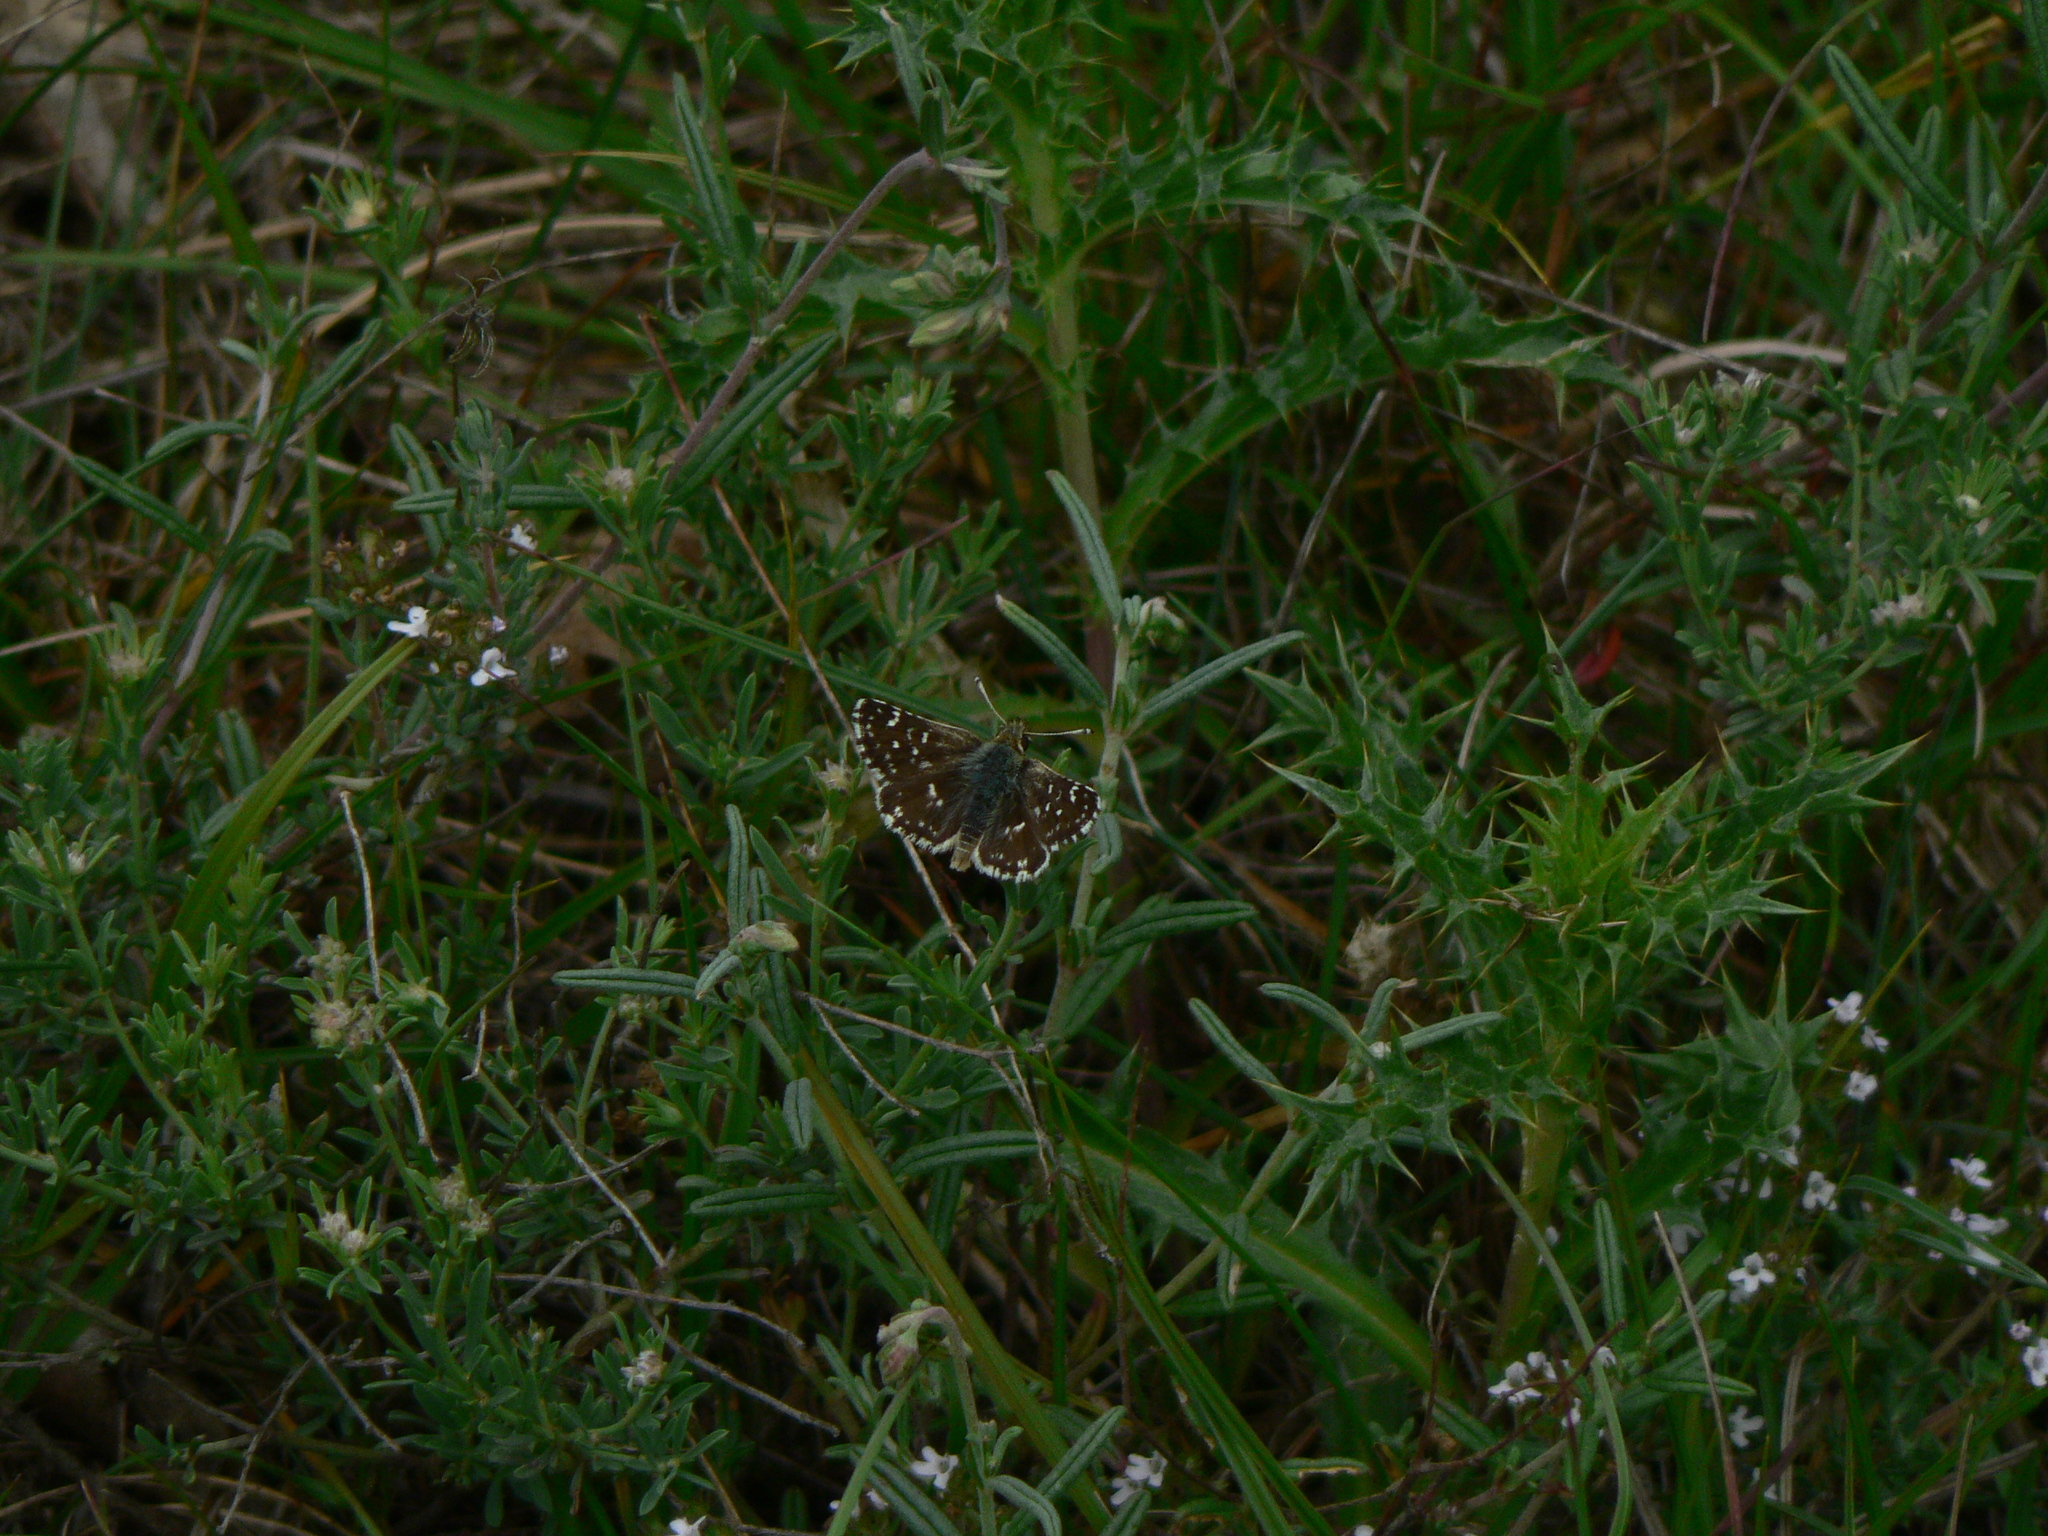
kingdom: Animalia
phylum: Arthropoda
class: Insecta
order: Lepidoptera
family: Hesperiidae
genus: Spialia
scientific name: Spialia sertorius
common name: Red underwing skipper
